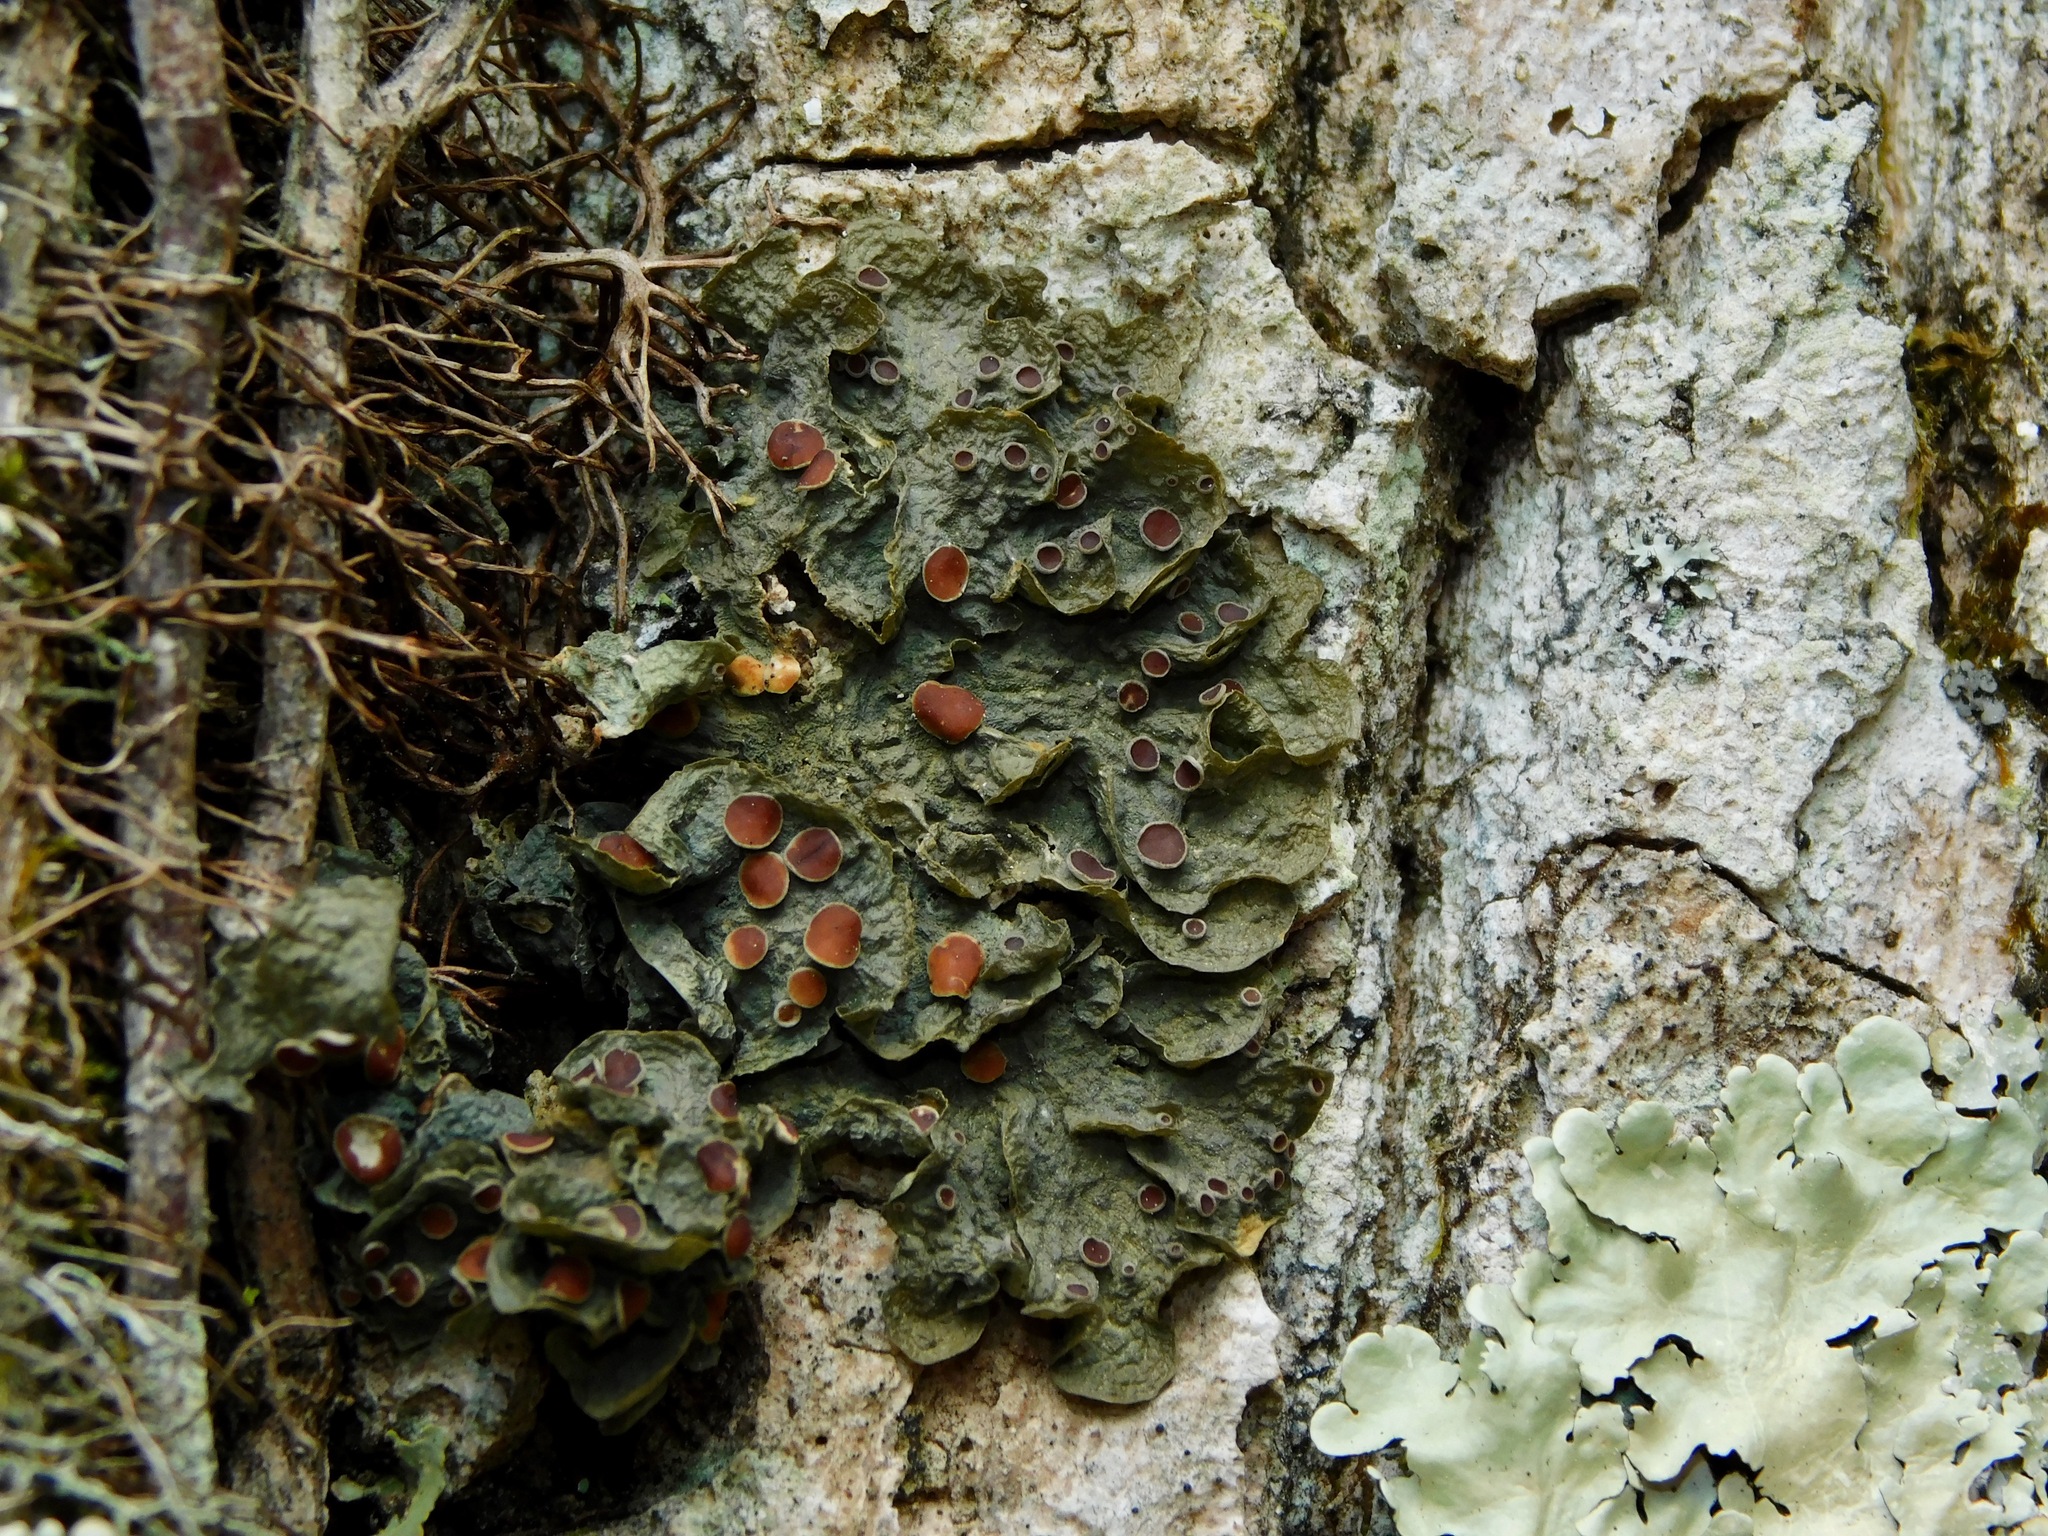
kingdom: Fungi
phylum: Ascomycota
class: Lecanoromycetes
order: Peltigerales
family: Collemataceae
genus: Leptogium
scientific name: Leptogium corticola
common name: Blistered jellyskin lichen
